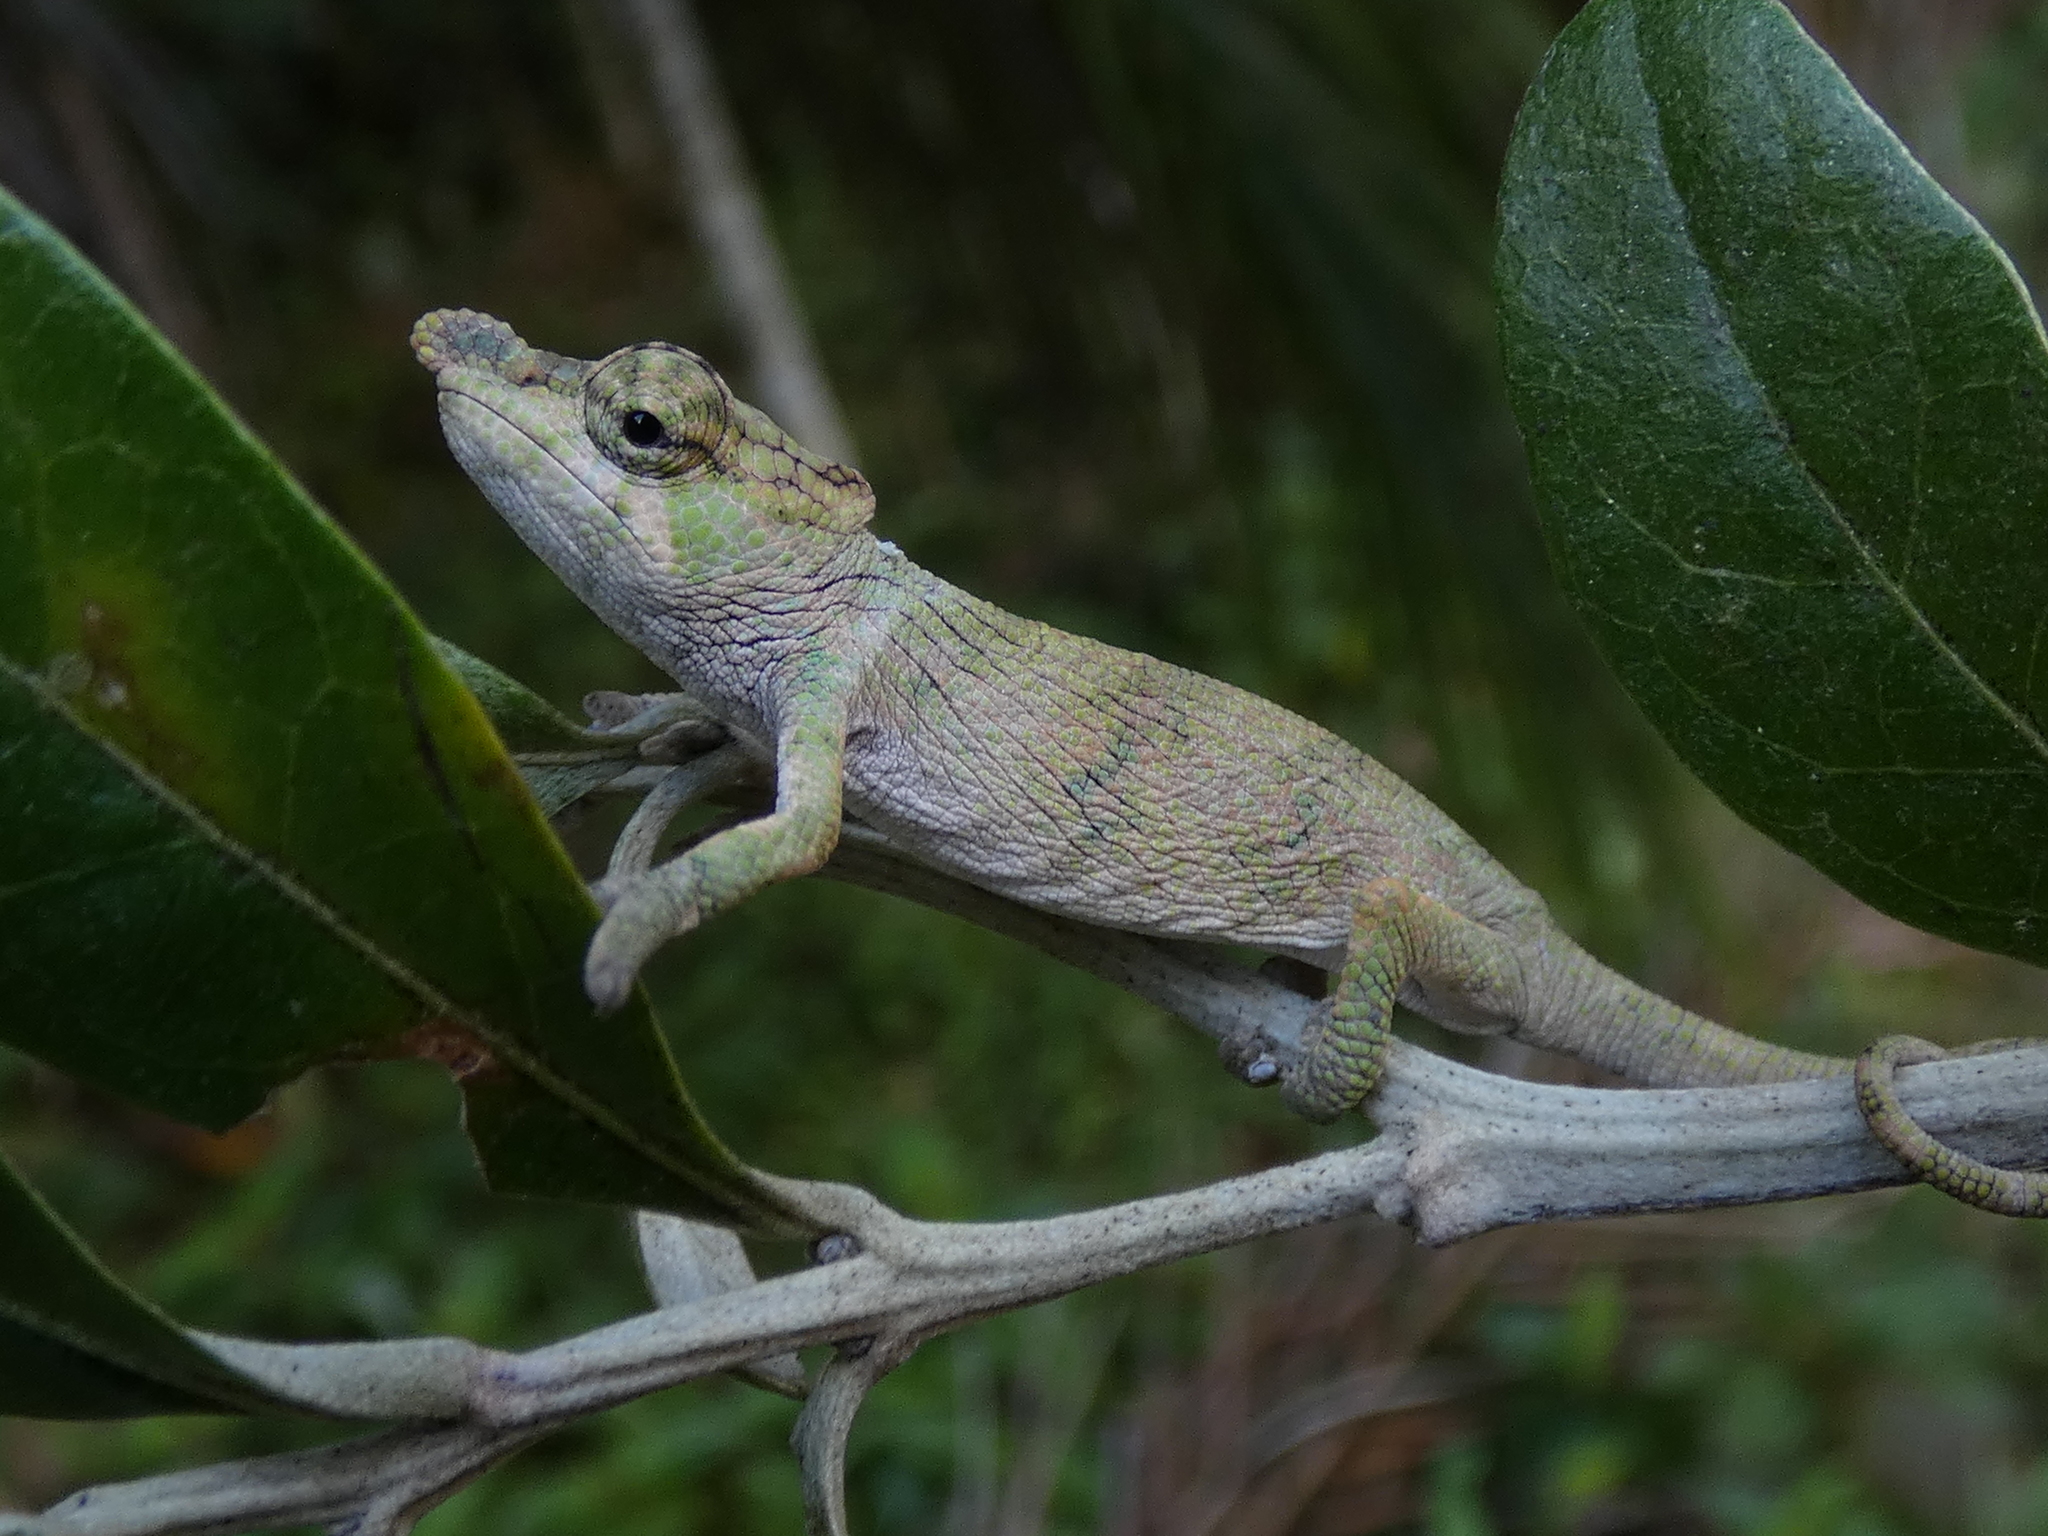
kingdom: Animalia
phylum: Chordata
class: Squamata
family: Chamaeleonidae
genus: Calumma
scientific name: Calumma emelinae
